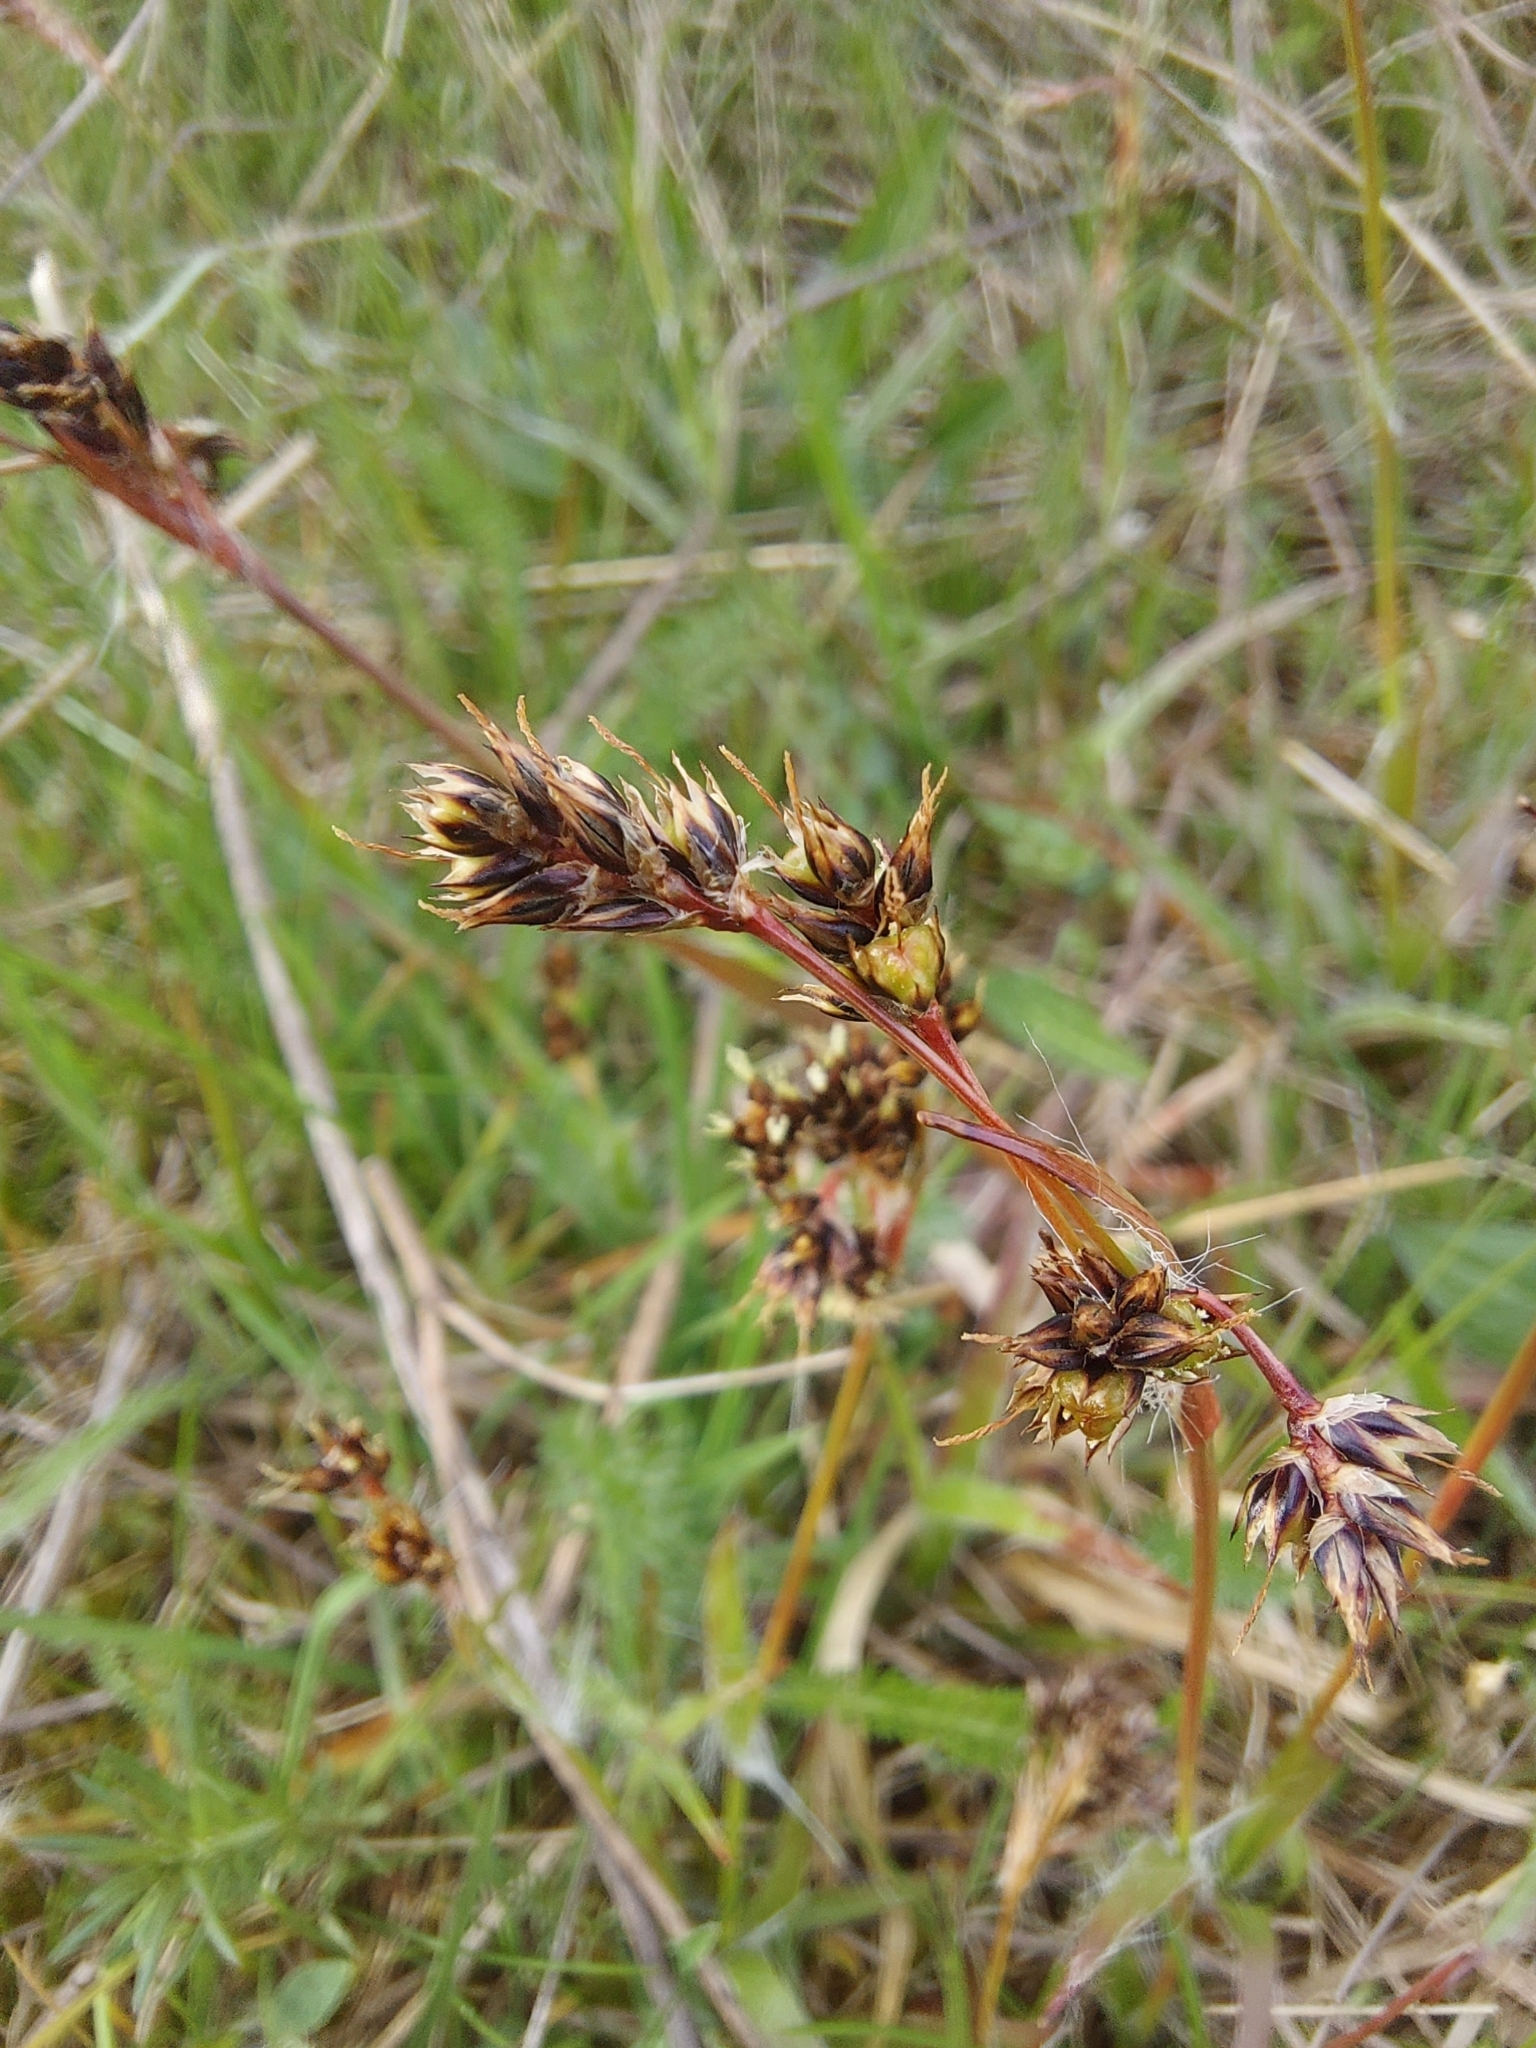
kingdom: Plantae
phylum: Tracheophyta
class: Liliopsida
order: Poales
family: Juncaceae
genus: Luzula
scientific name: Luzula campestris
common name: Field wood-rush
